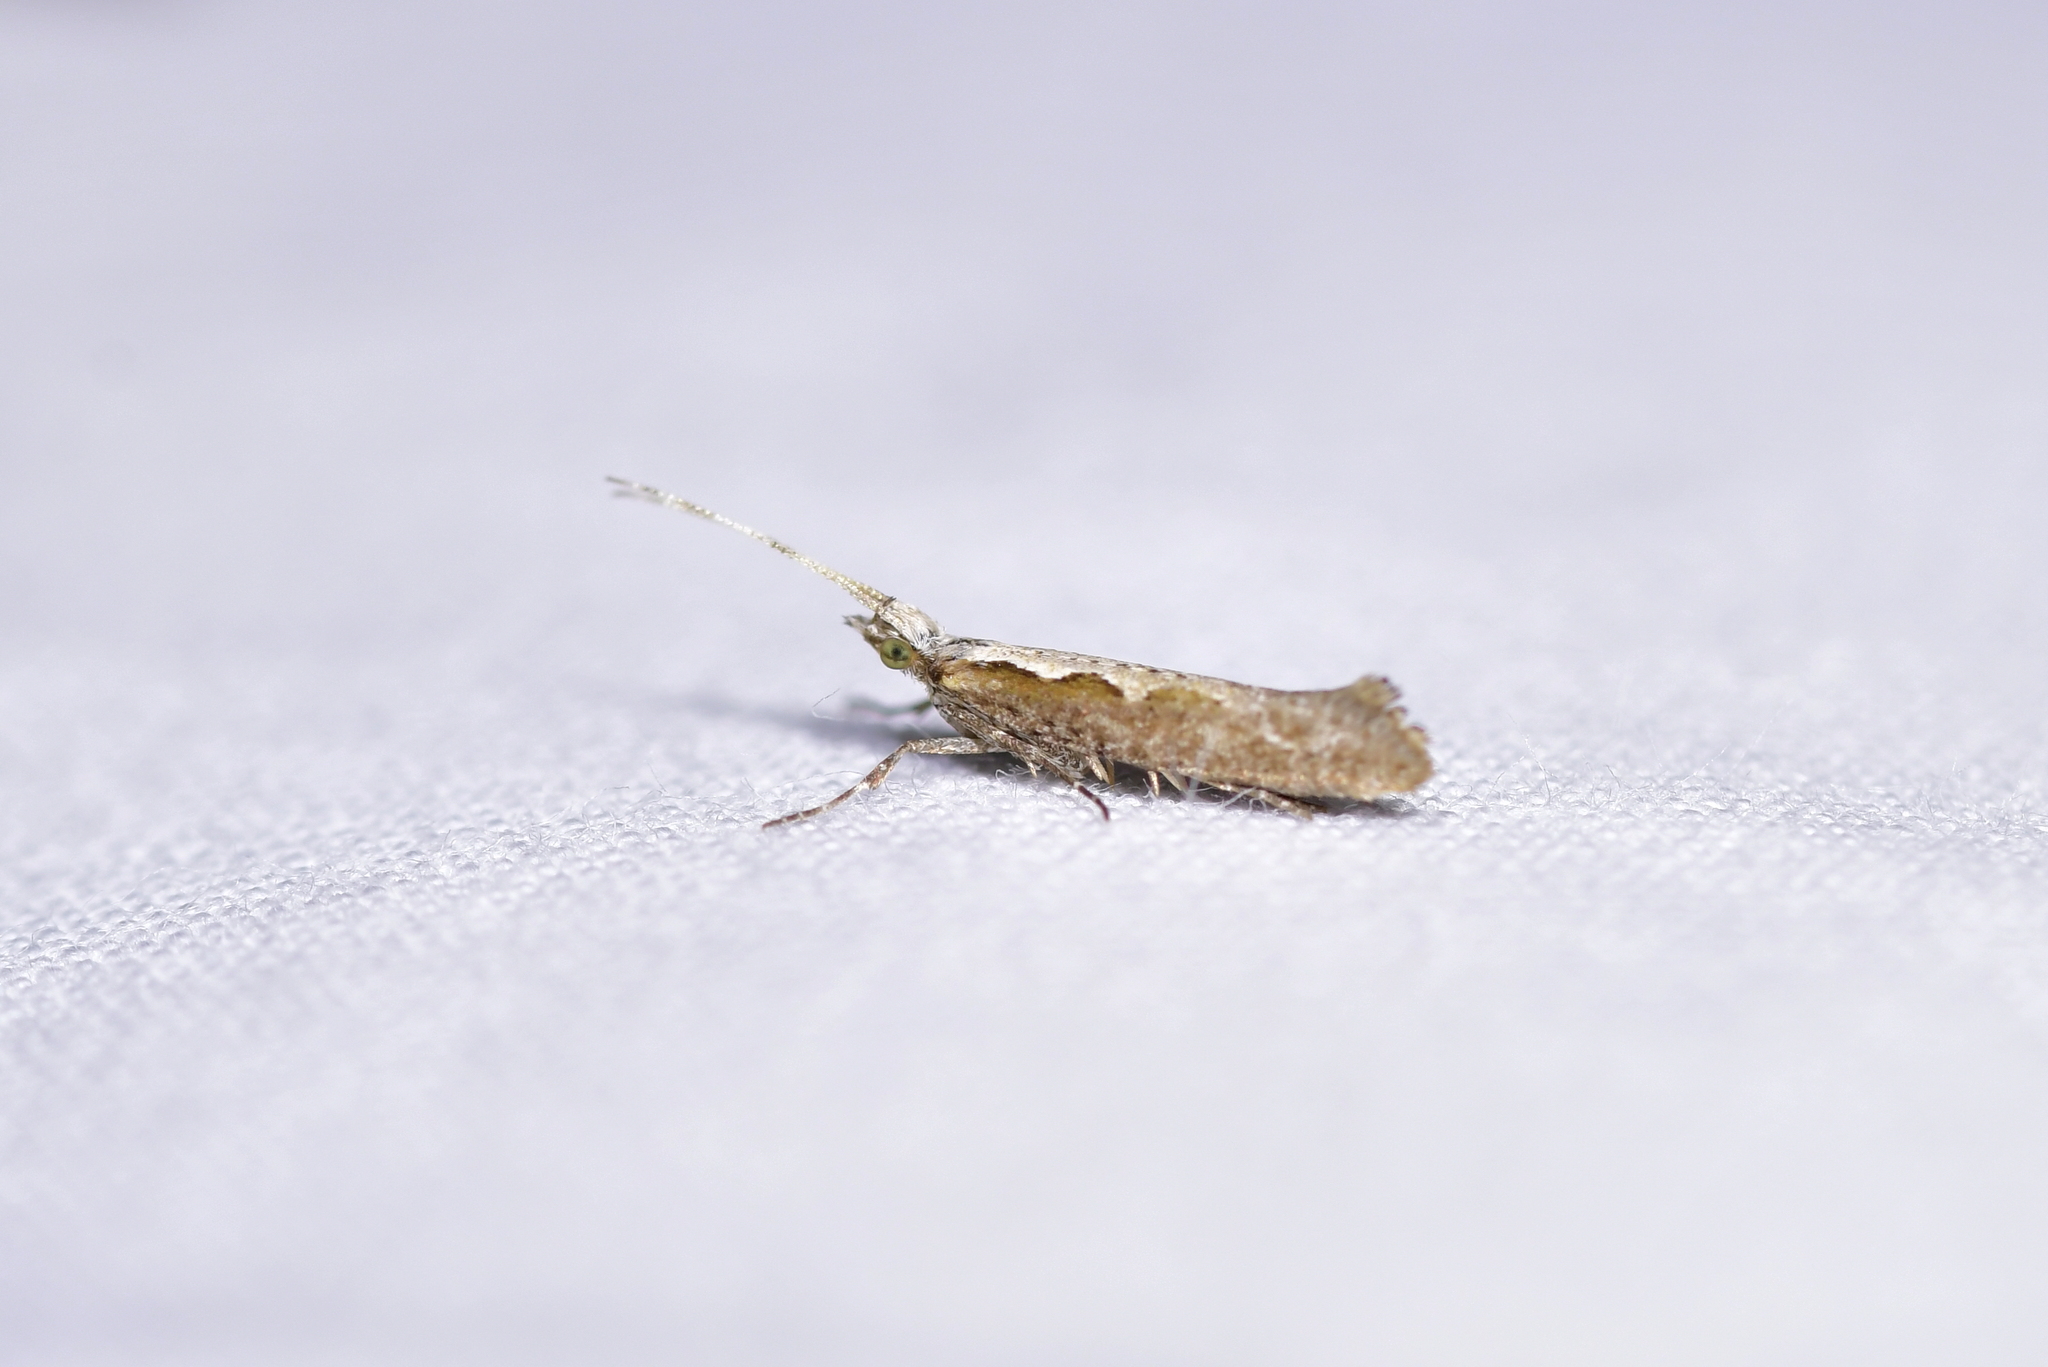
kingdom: Animalia
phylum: Arthropoda
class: Insecta
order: Lepidoptera
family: Plutellidae
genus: Plutella
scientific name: Plutella xylostella
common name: Diamond-back moth
